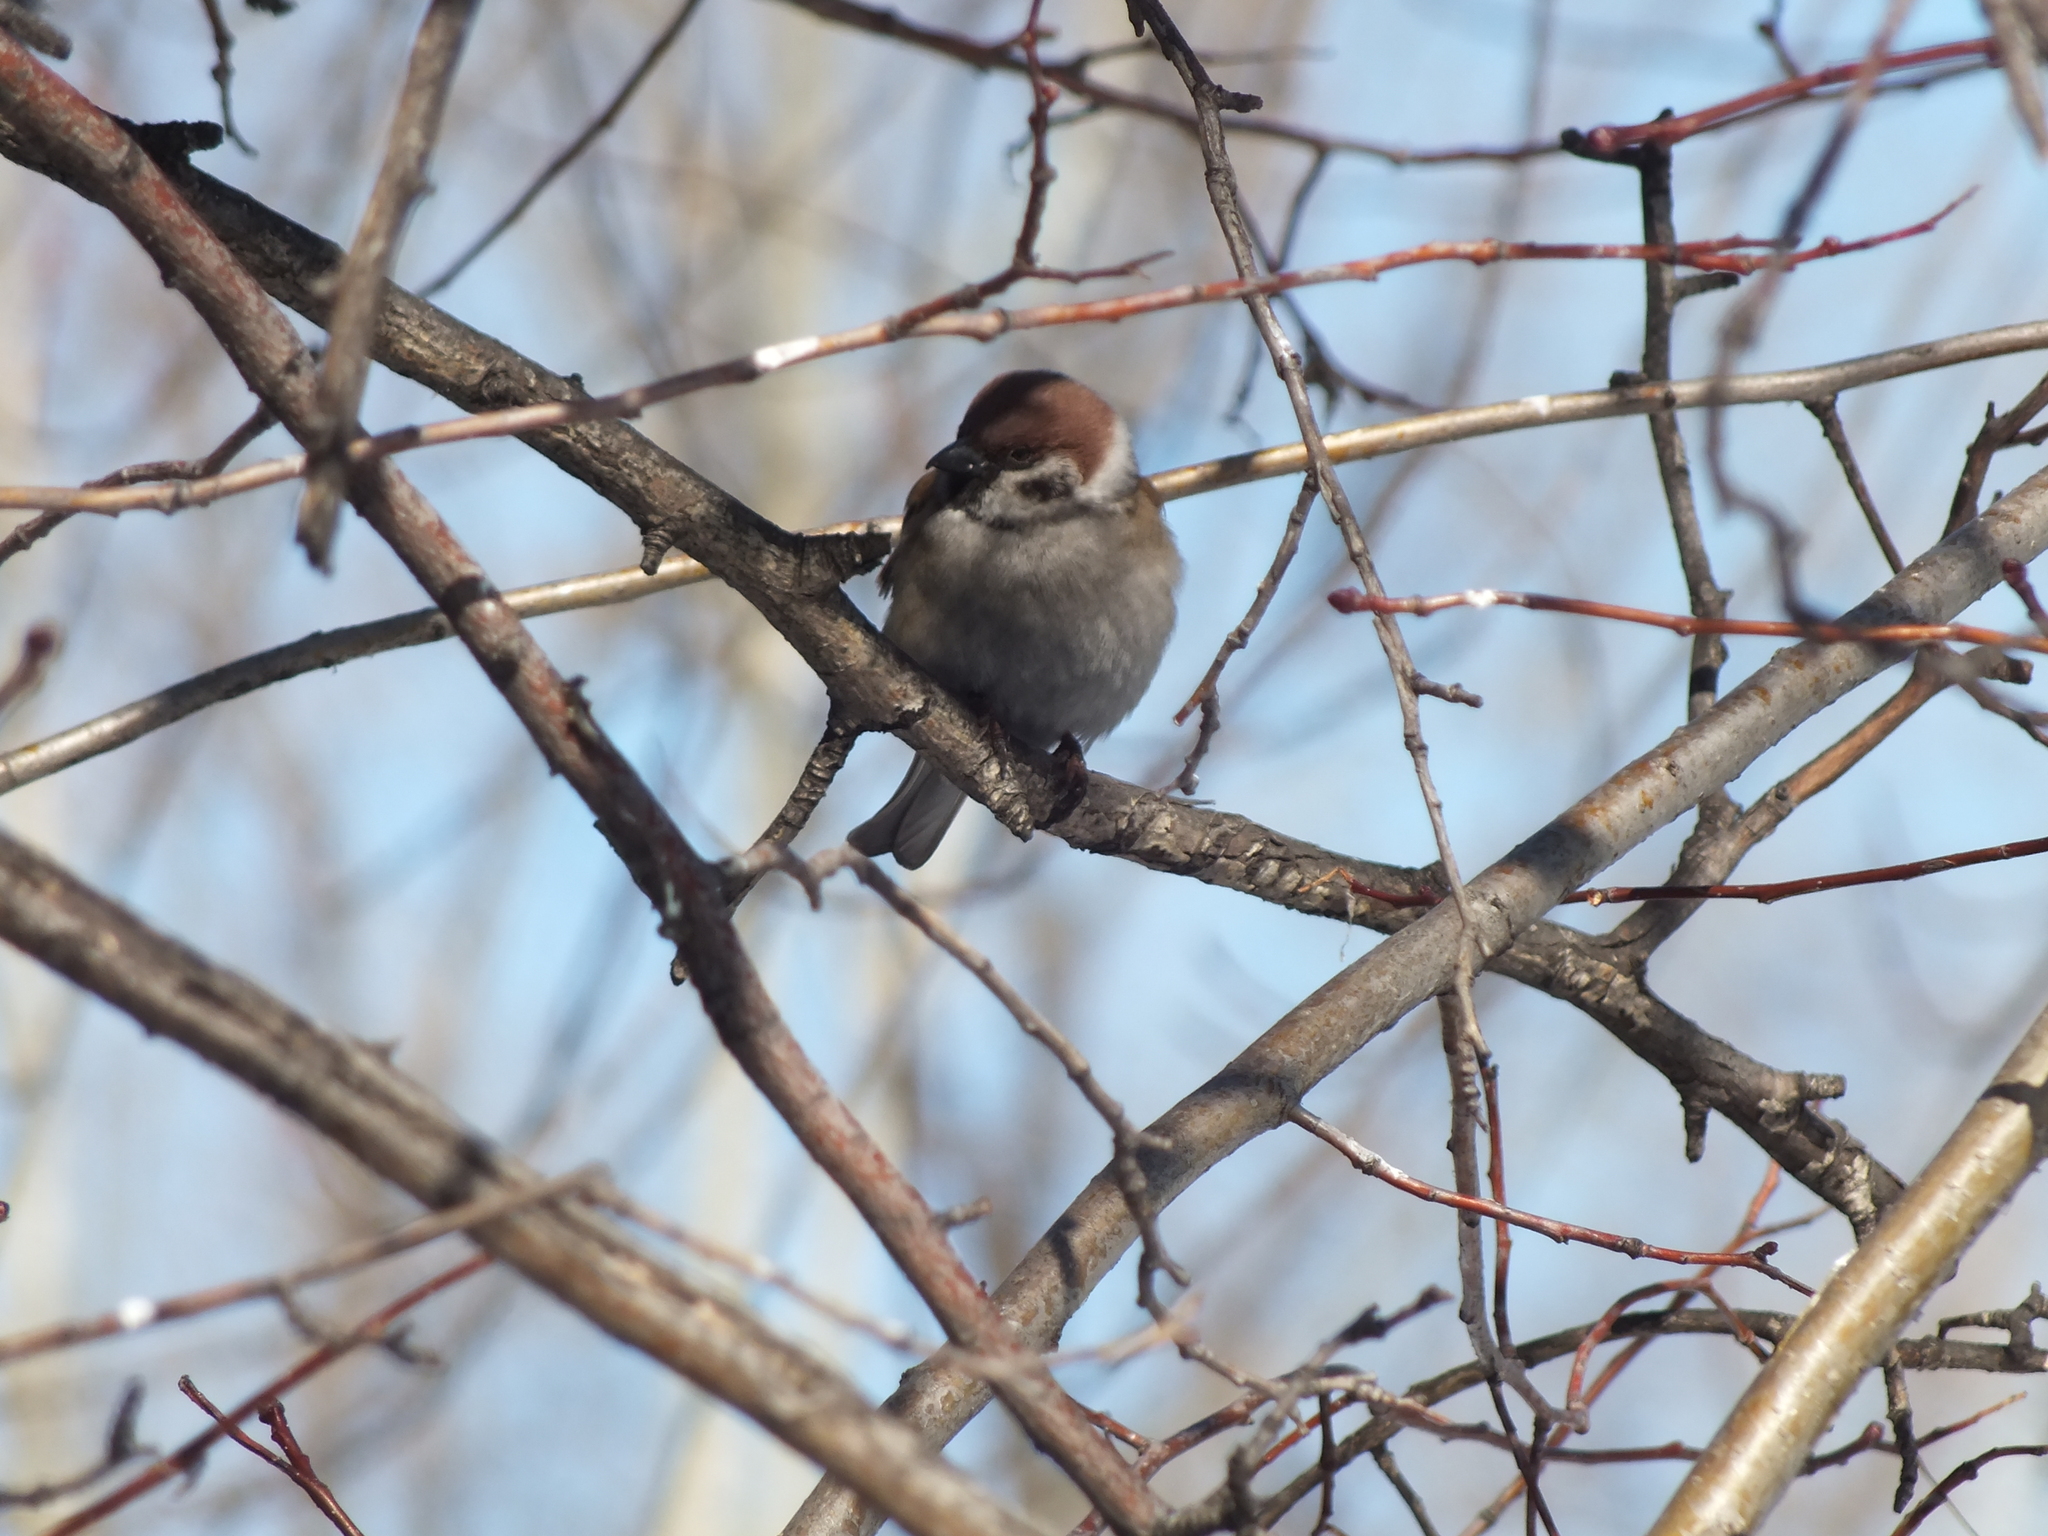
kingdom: Animalia
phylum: Chordata
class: Aves
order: Passeriformes
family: Passeridae
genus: Passer
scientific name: Passer montanus
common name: Eurasian tree sparrow
